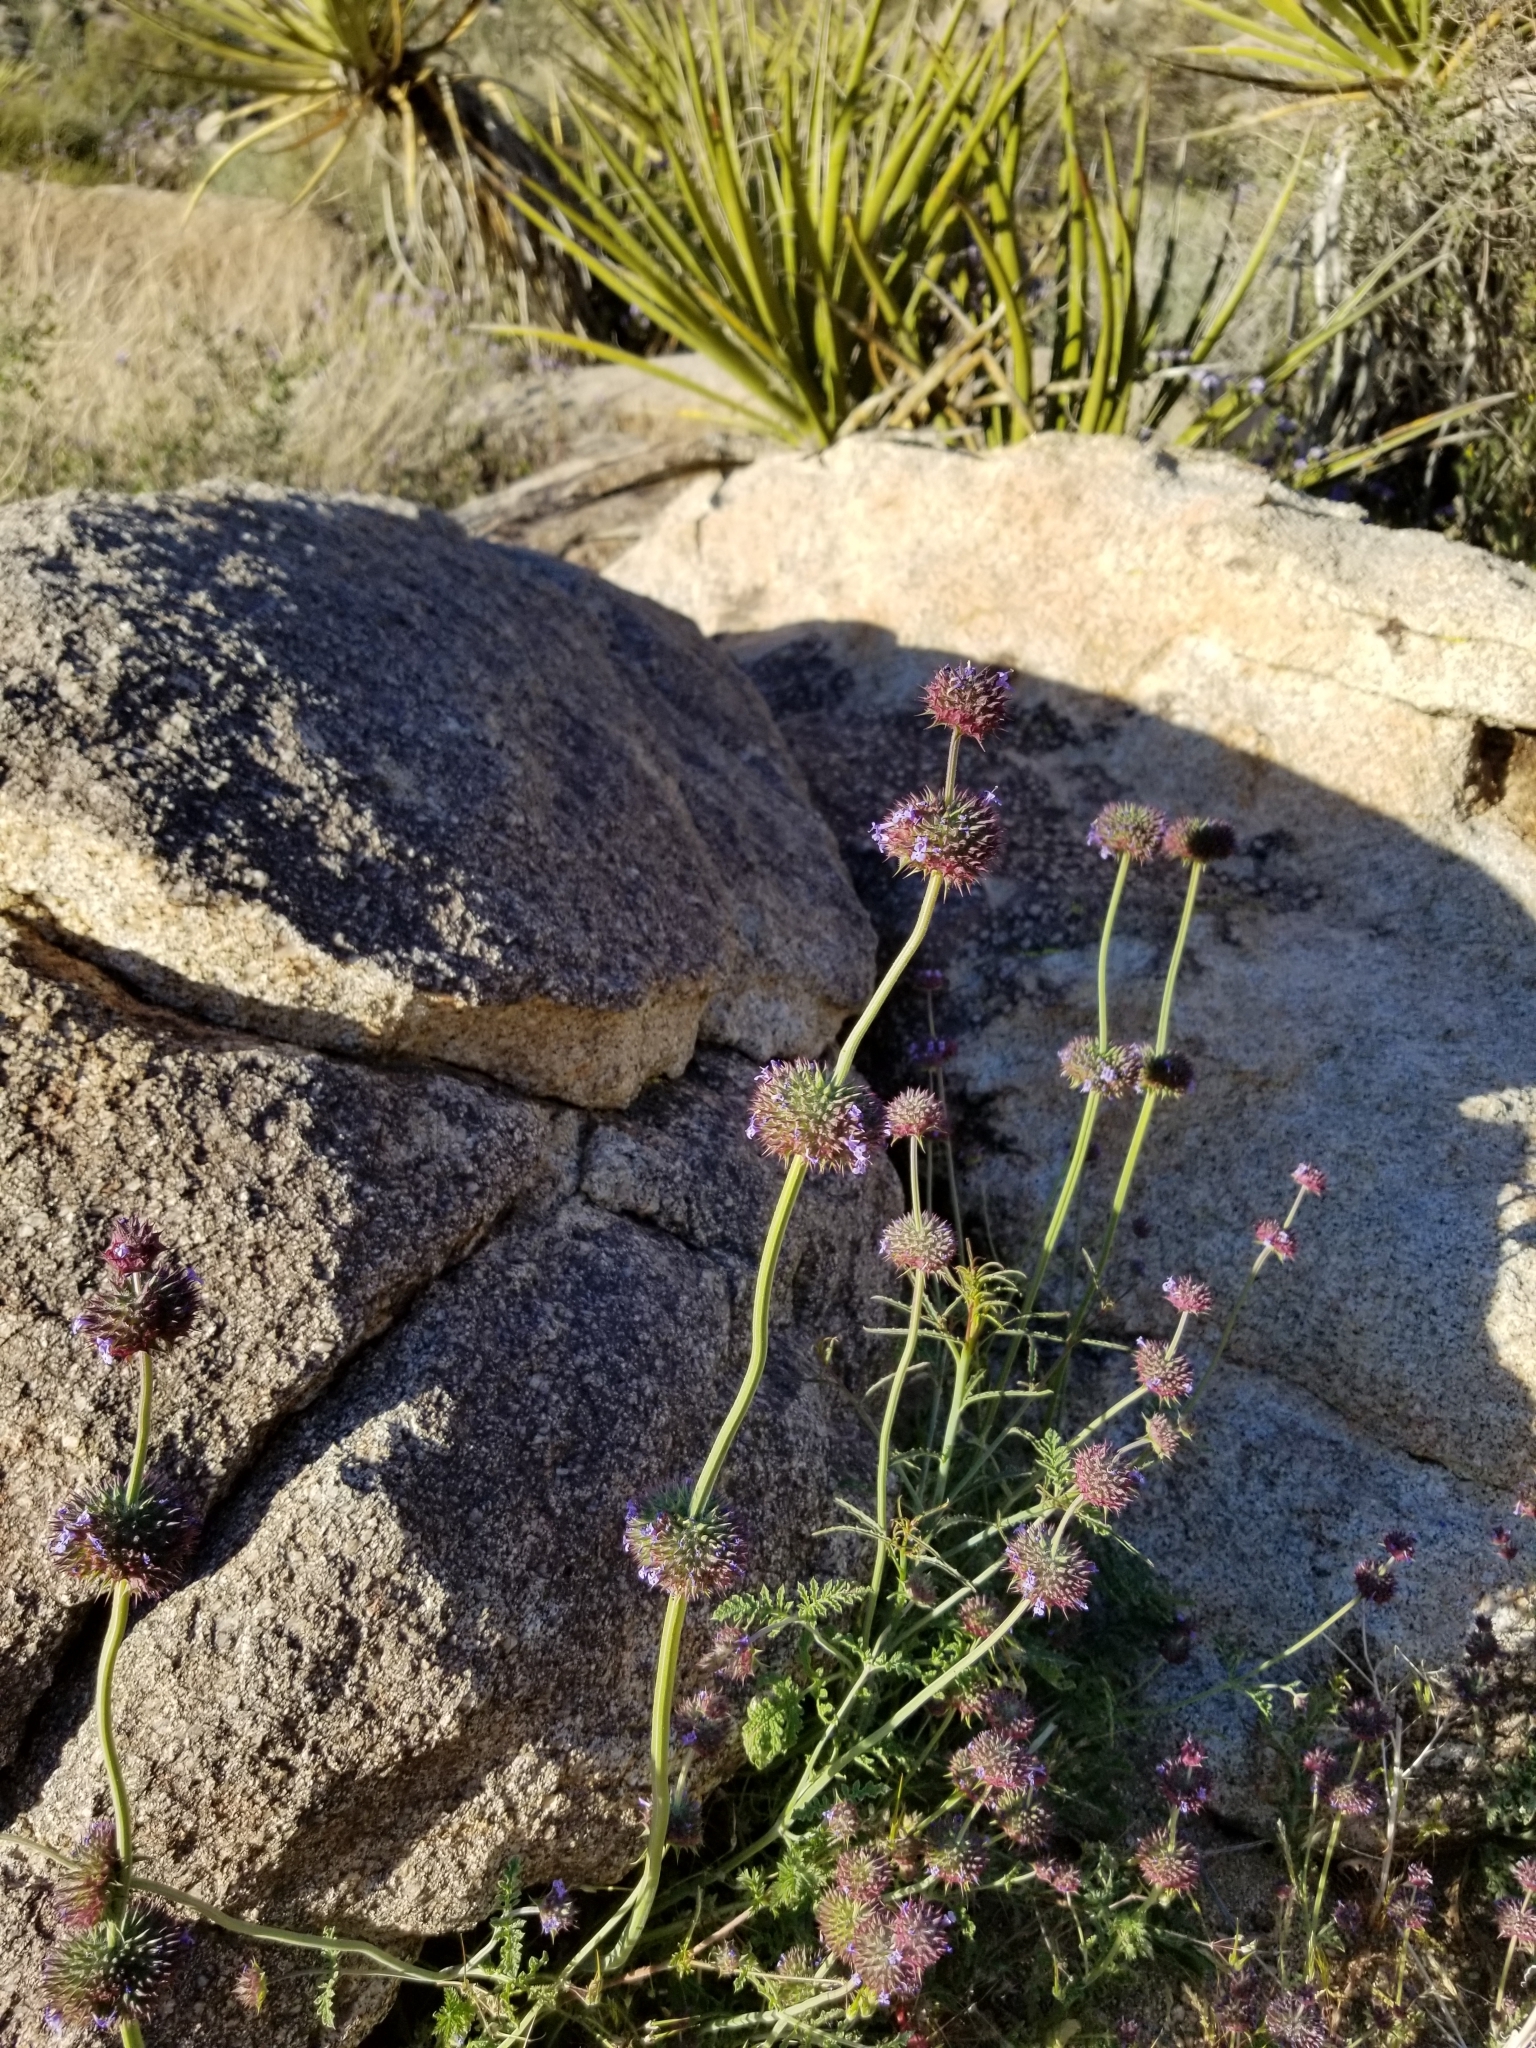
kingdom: Plantae
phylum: Tracheophyta
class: Magnoliopsida
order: Lamiales
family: Lamiaceae
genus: Salvia
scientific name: Salvia columbariae
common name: Chia
